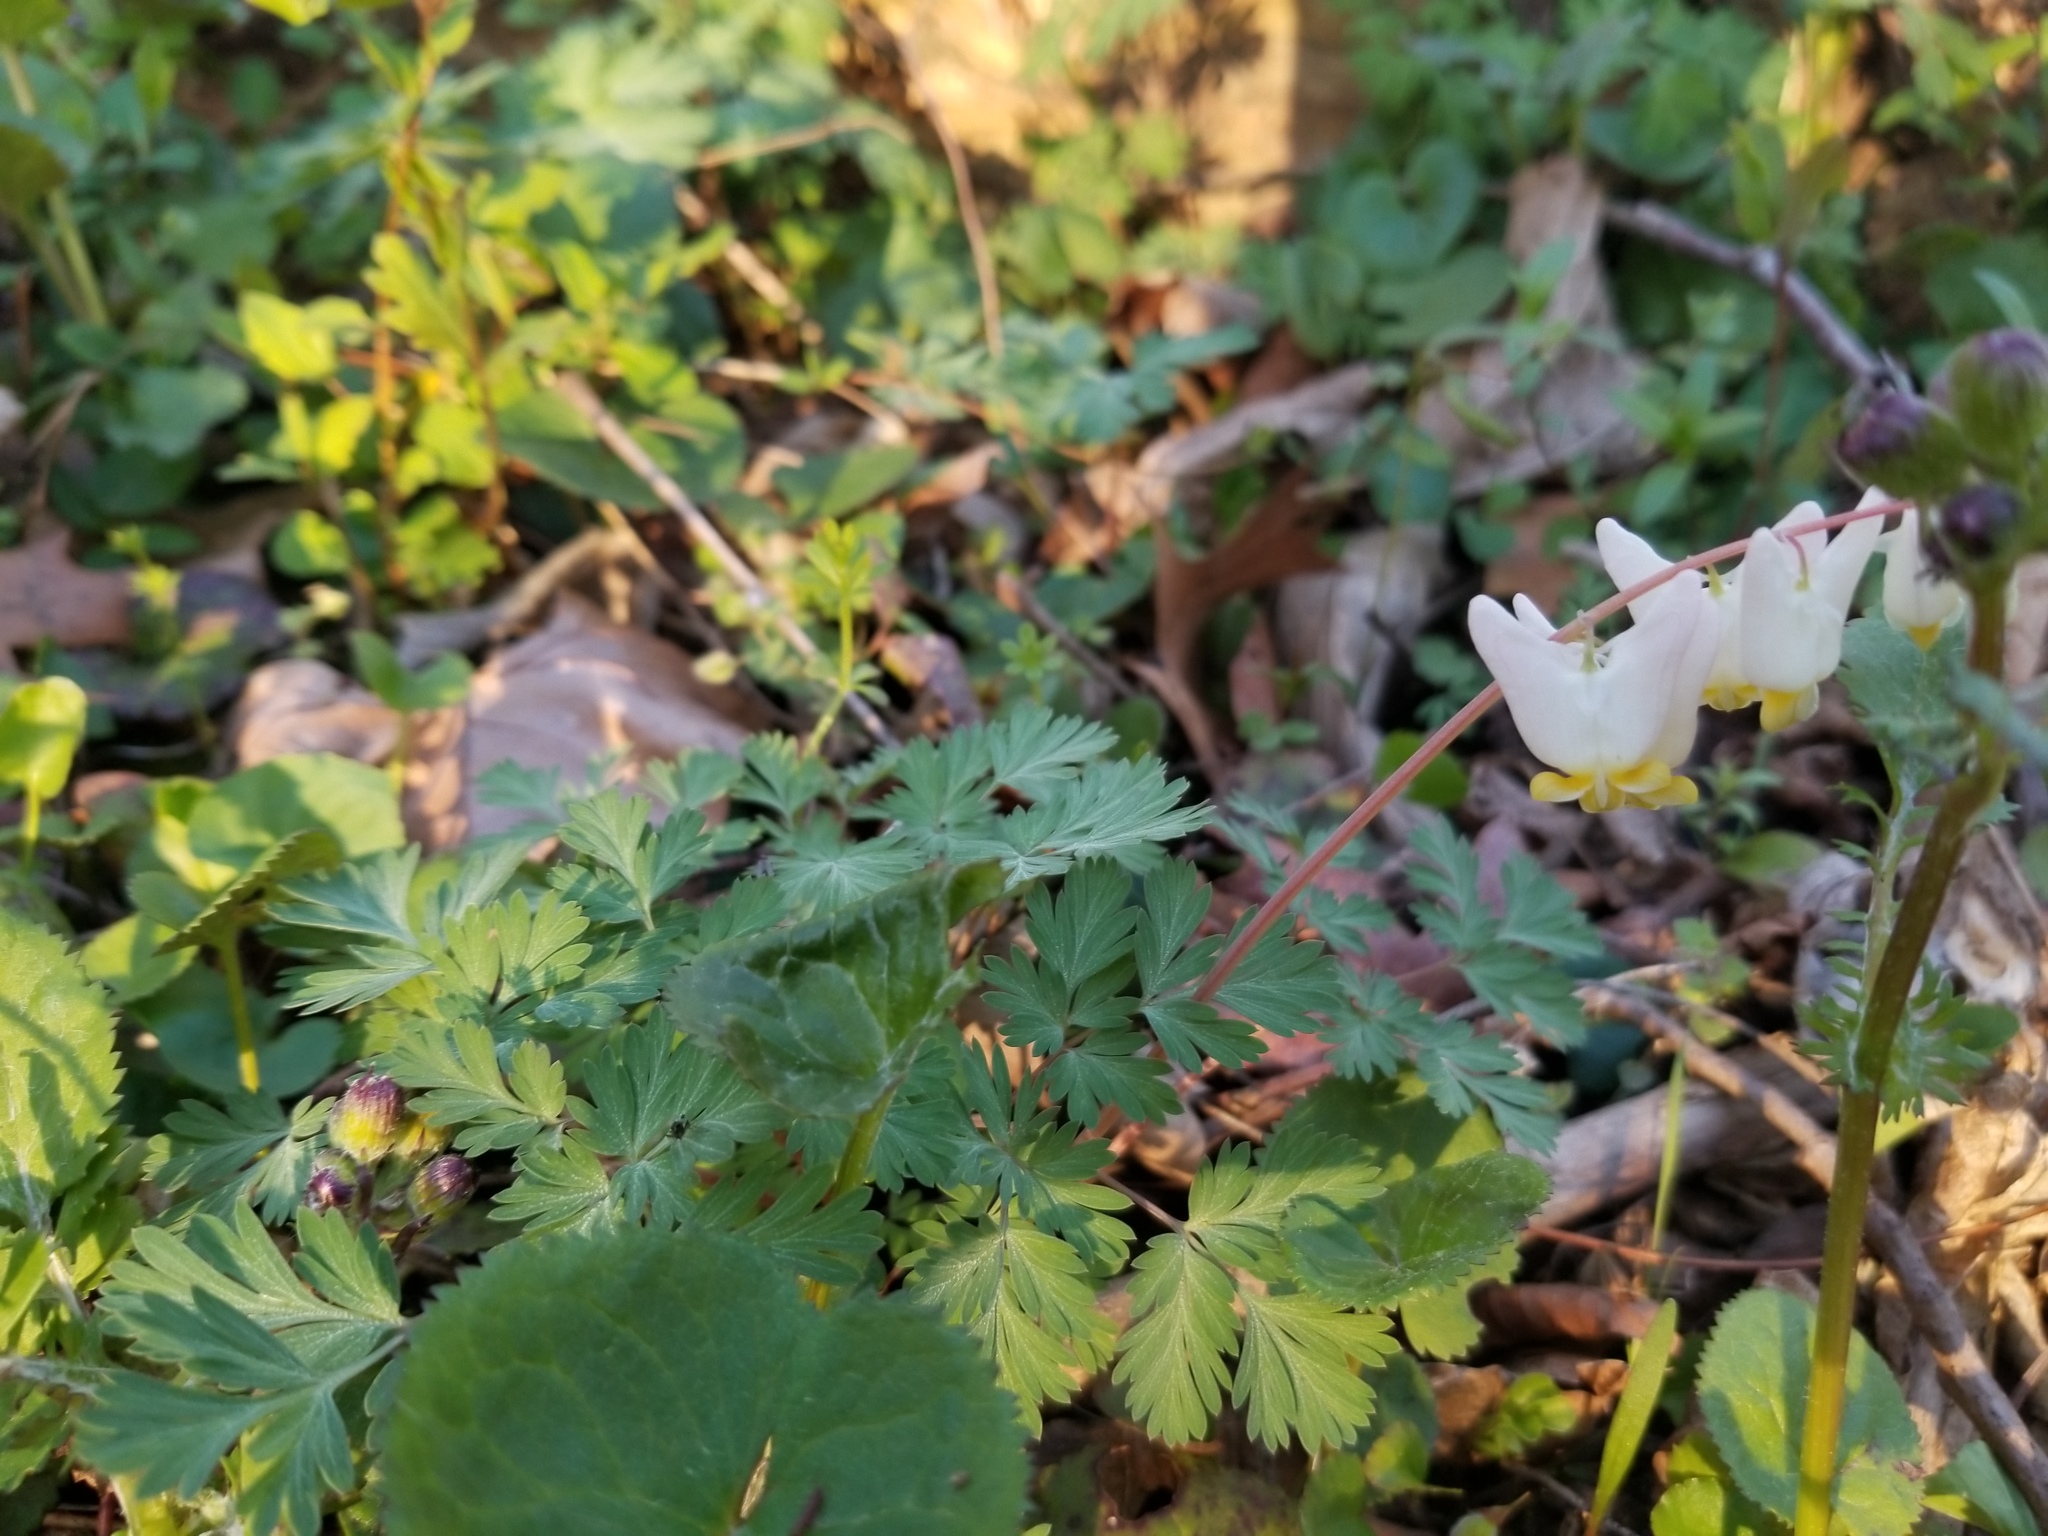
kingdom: Plantae
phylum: Tracheophyta
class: Magnoliopsida
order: Ranunculales
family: Papaveraceae
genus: Dicentra
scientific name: Dicentra cucullaria
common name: Dutchman's breeches
